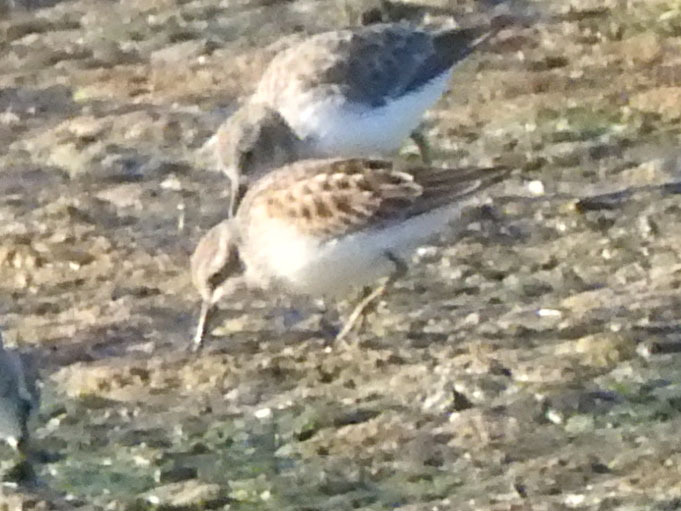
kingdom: Animalia
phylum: Chordata
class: Aves
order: Charadriiformes
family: Scolopacidae
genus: Calidris
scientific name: Calidris minutilla
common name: Least sandpiper
